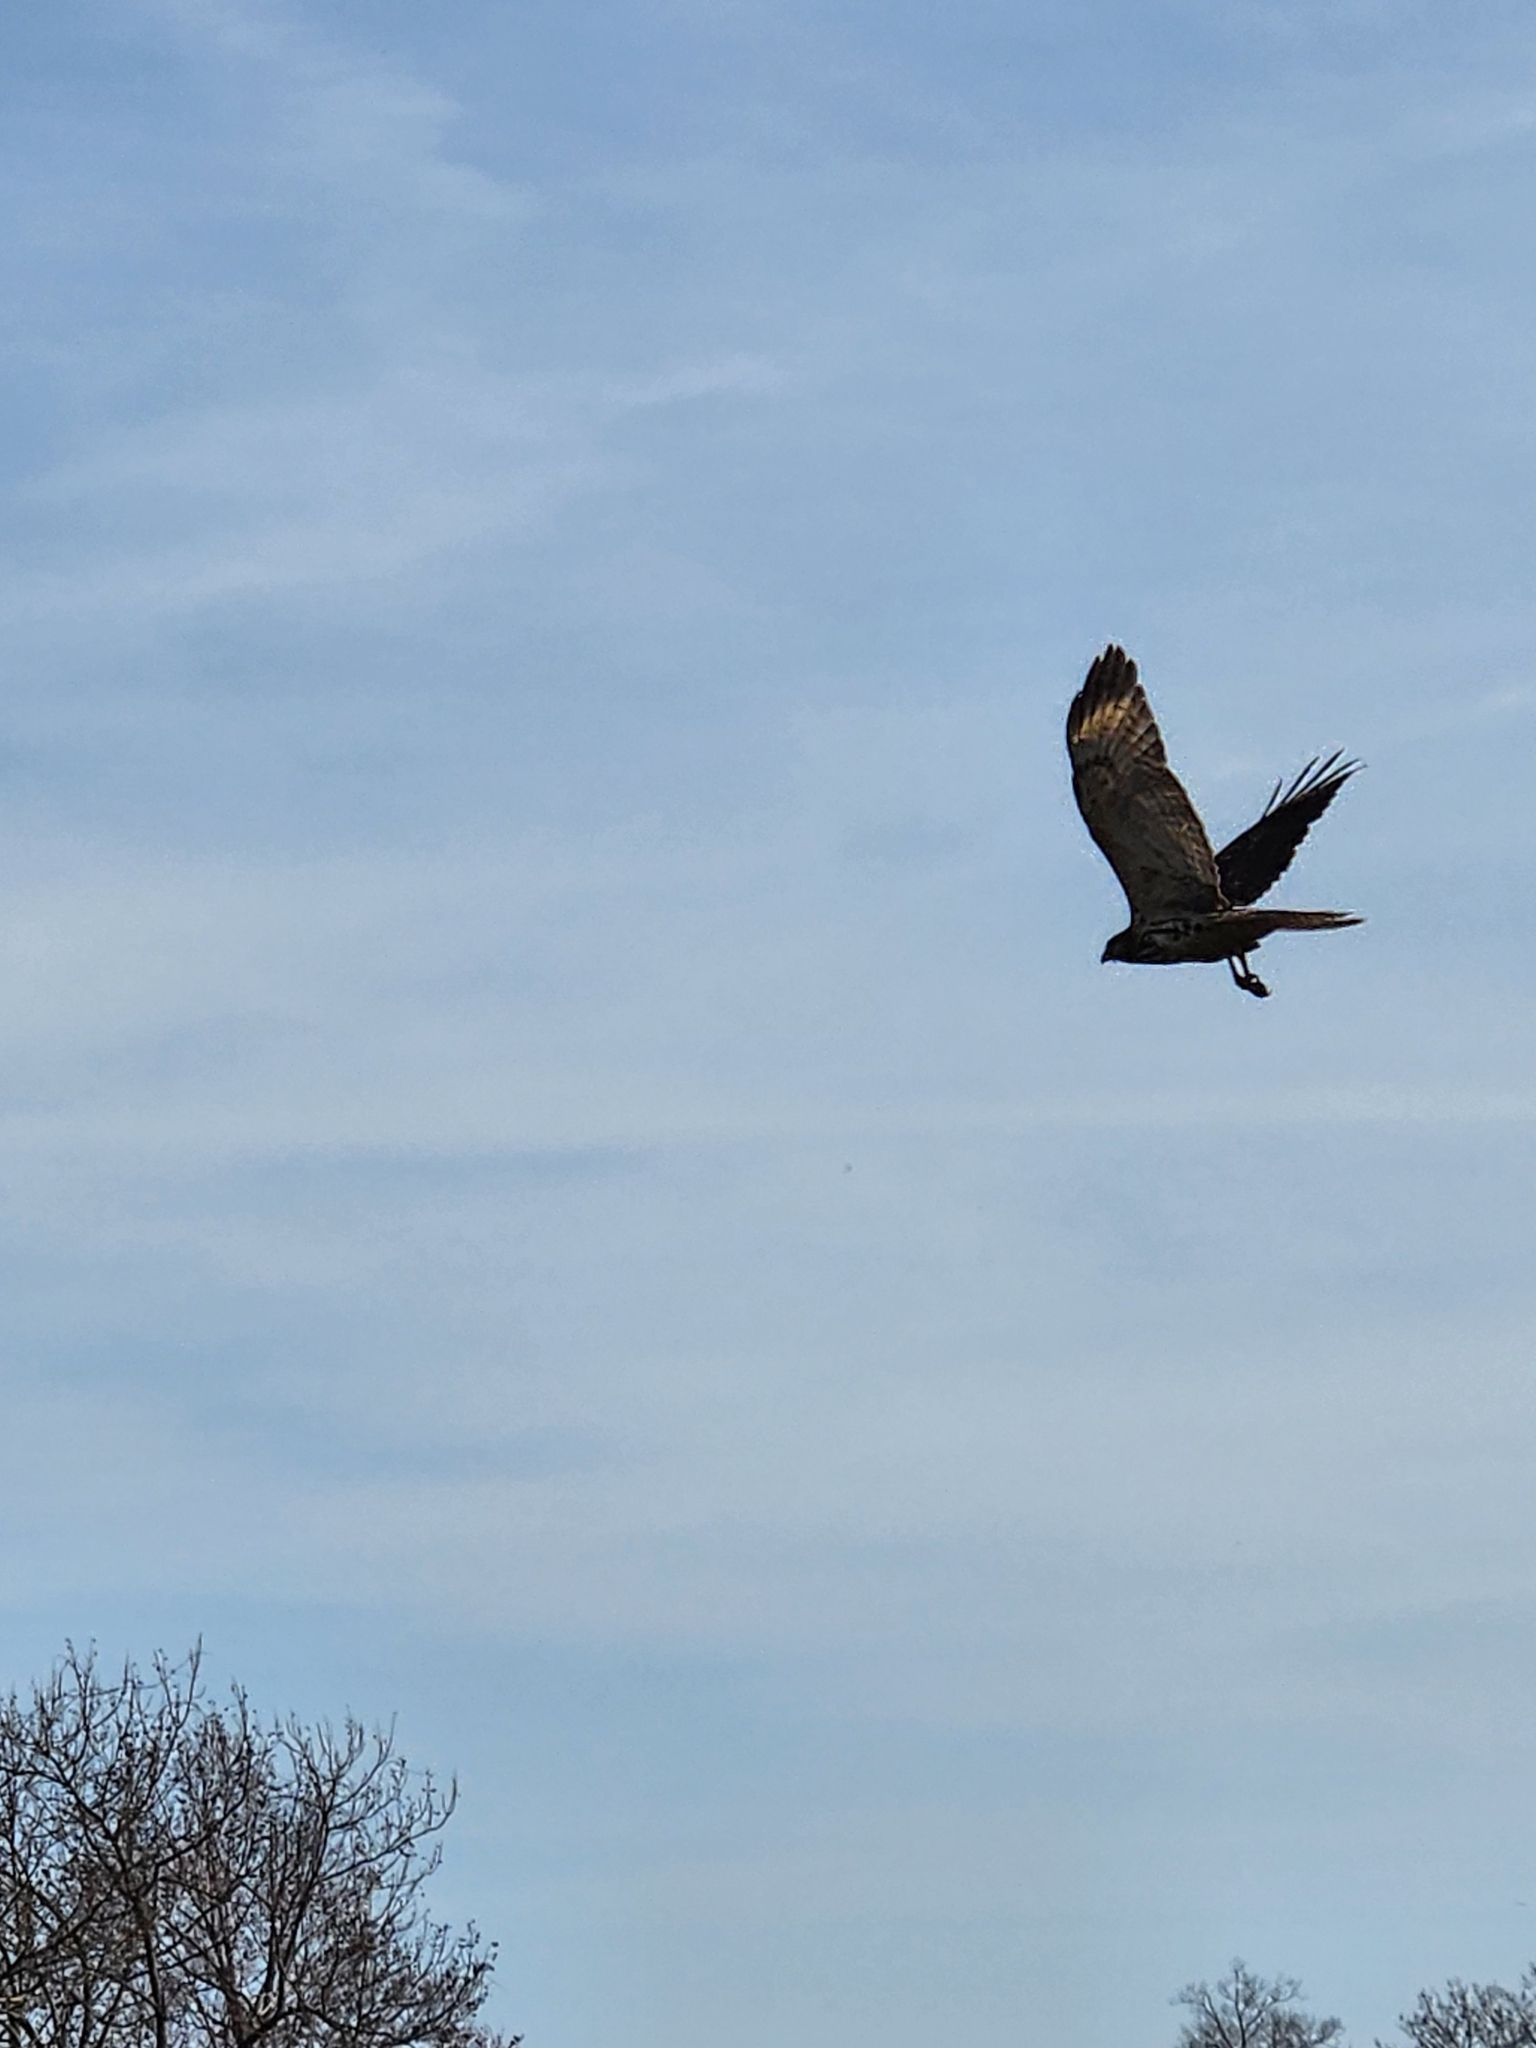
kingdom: Animalia
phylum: Chordata
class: Aves
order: Accipitriformes
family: Accipitridae
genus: Buteo
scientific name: Buteo lineatus
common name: Red-shouldered hawk
